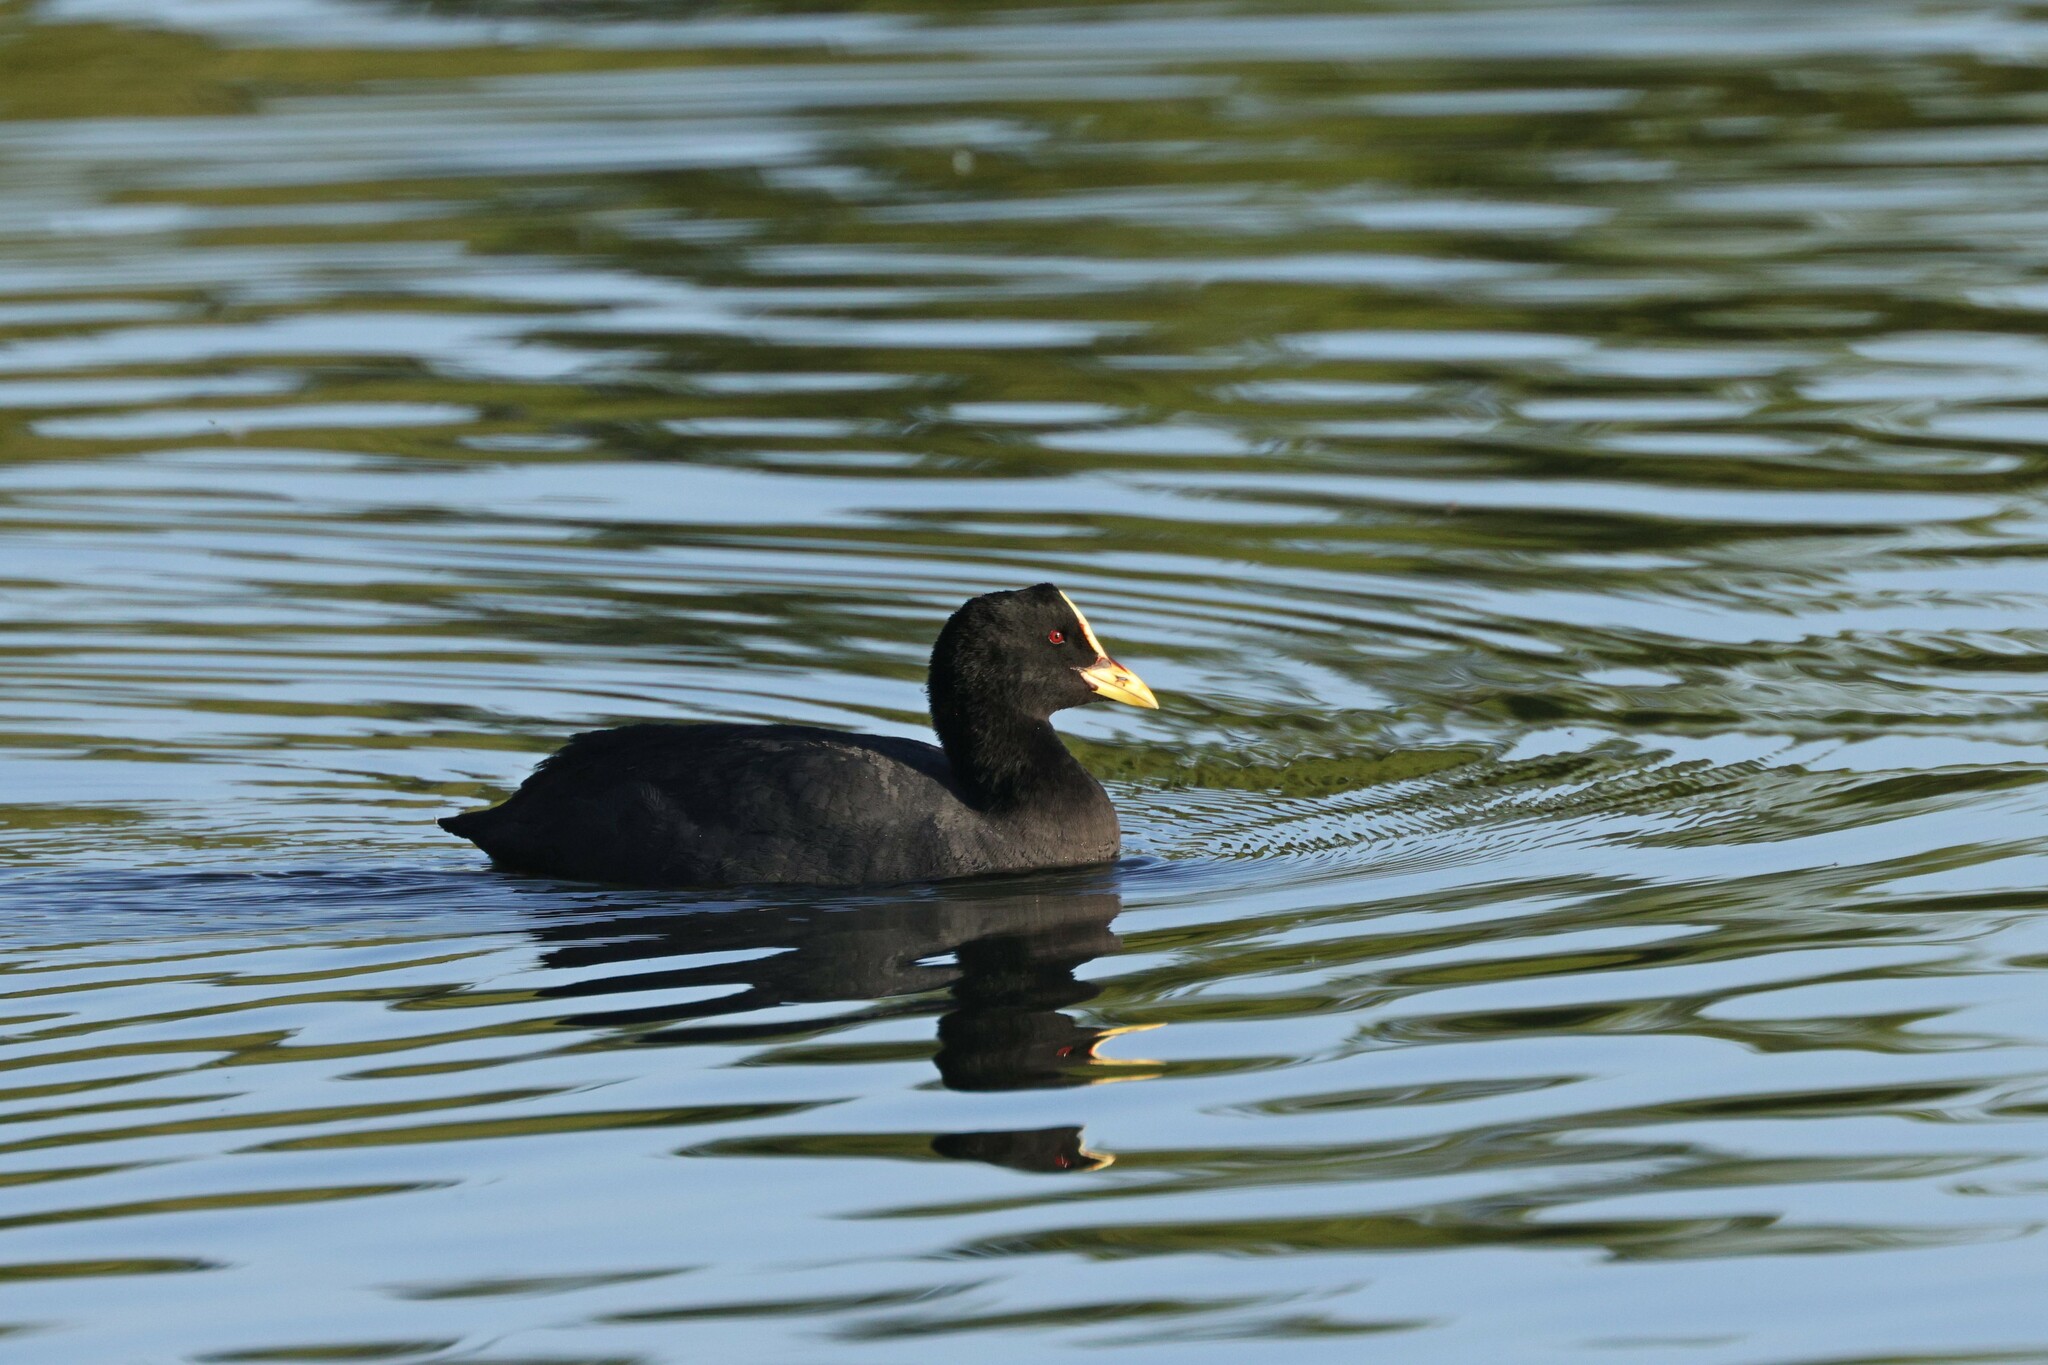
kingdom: Animalia
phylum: Chordata
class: Aves
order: Gruiformes
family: Rallidae
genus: Fulica
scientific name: Fulica armillata
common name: Red-gartered coot
